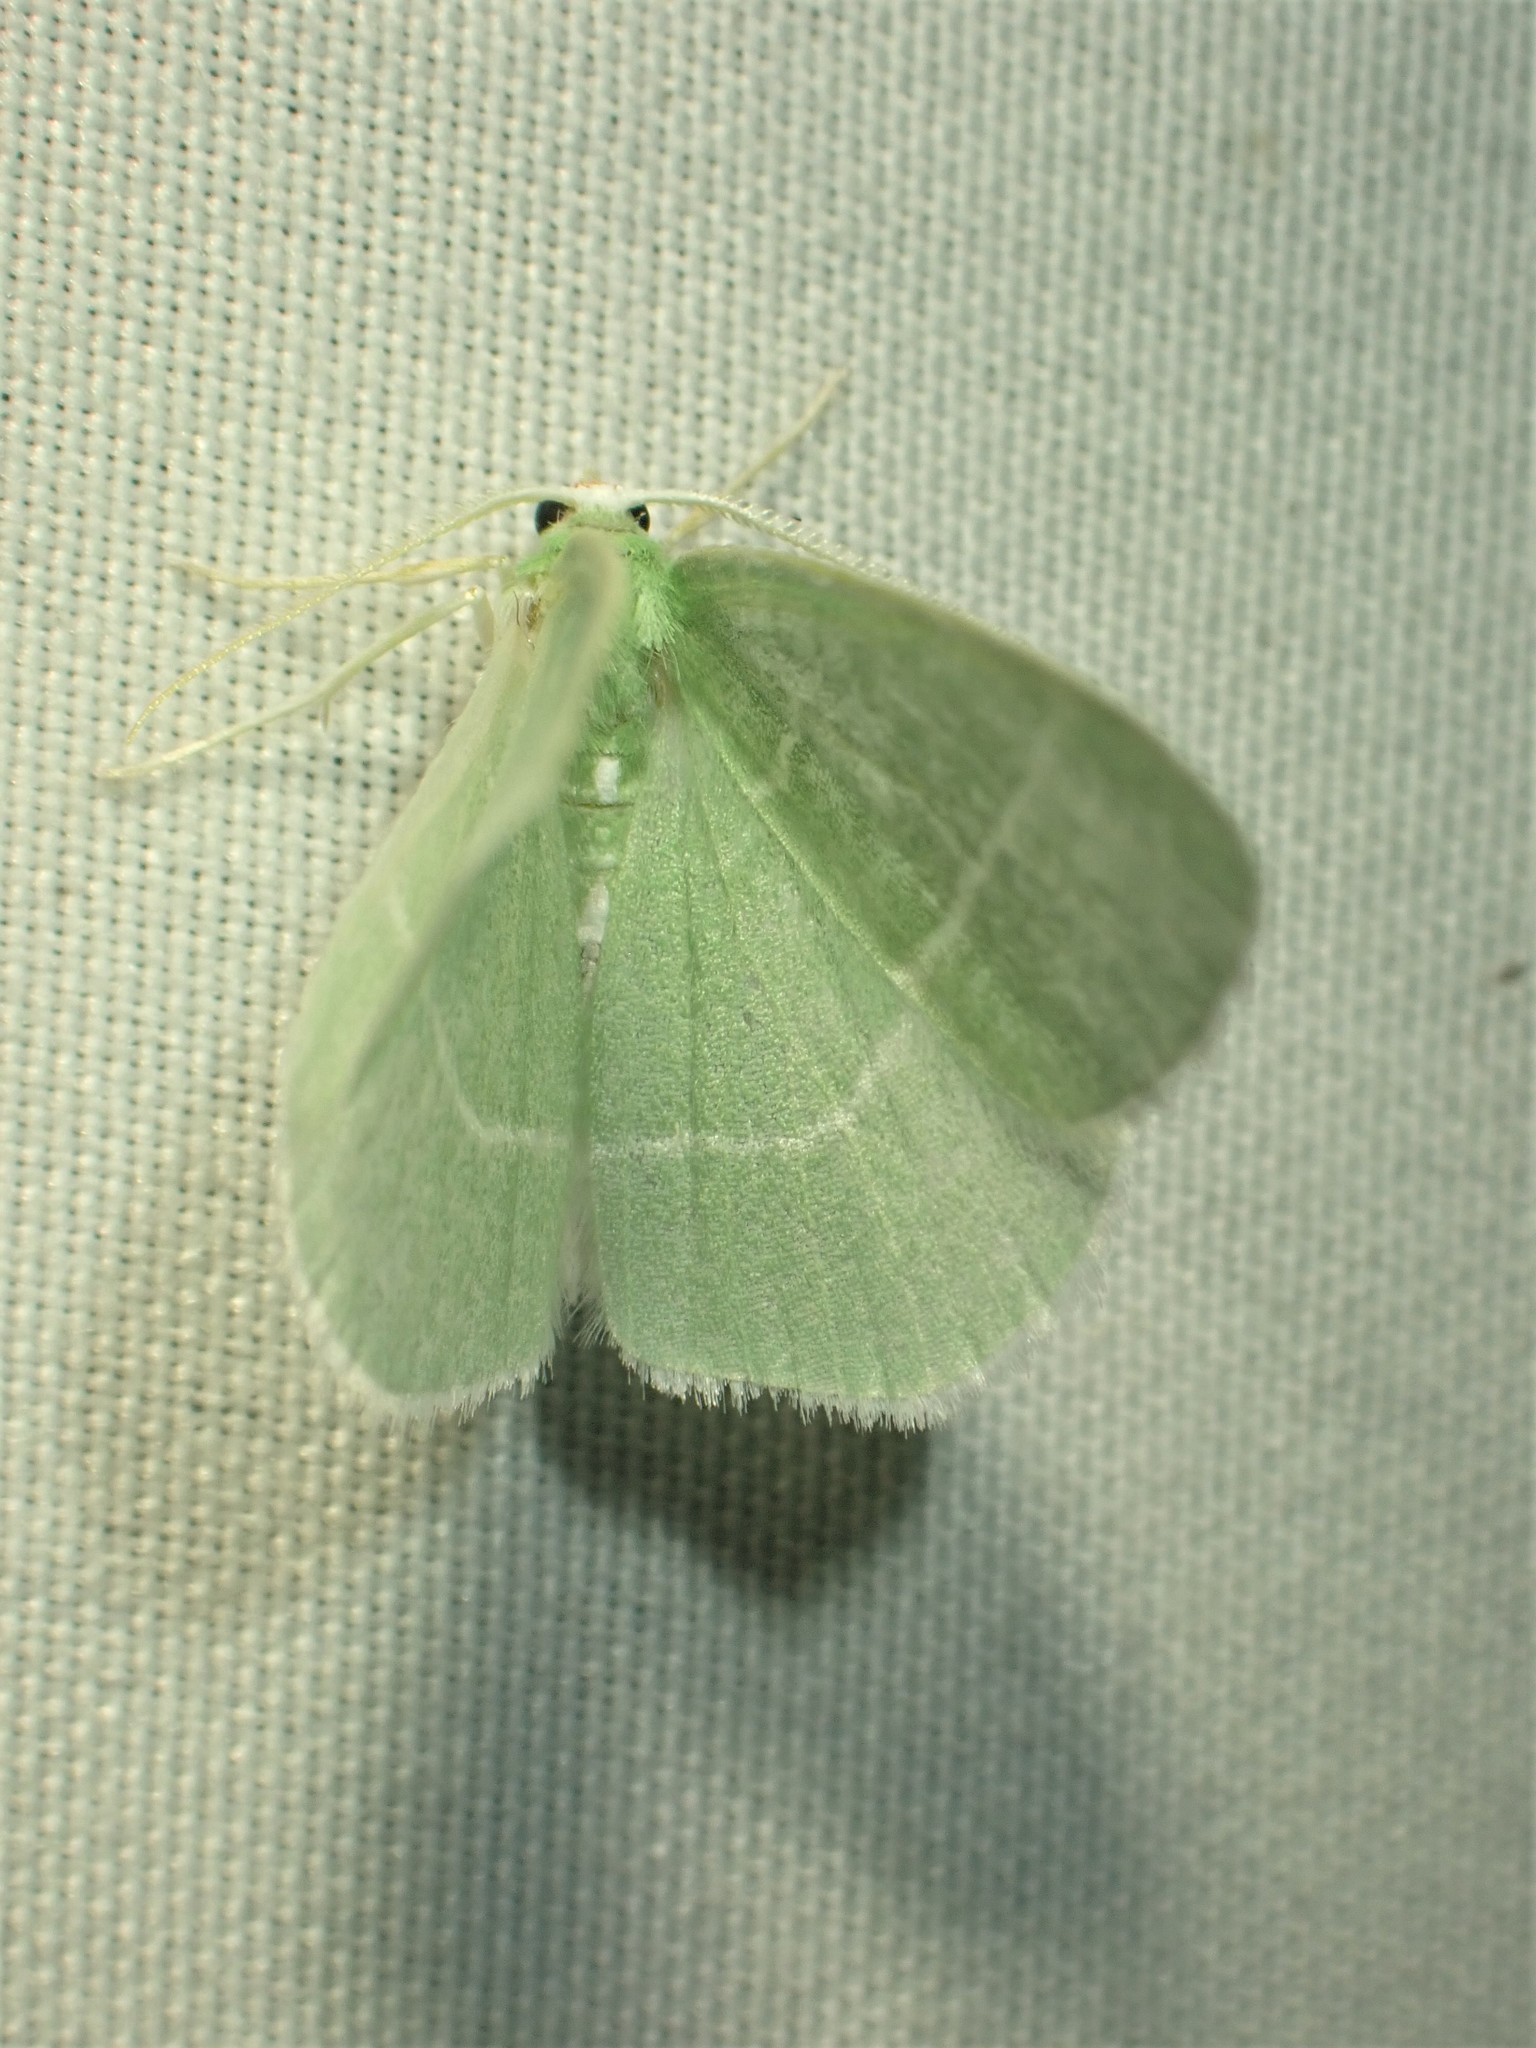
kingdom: Animalia
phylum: Arthropoda
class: Insecta
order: Lepidoptera
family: Geometridae
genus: Nemoria
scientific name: Nemoria mimosaria
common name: White-fringed emerald
